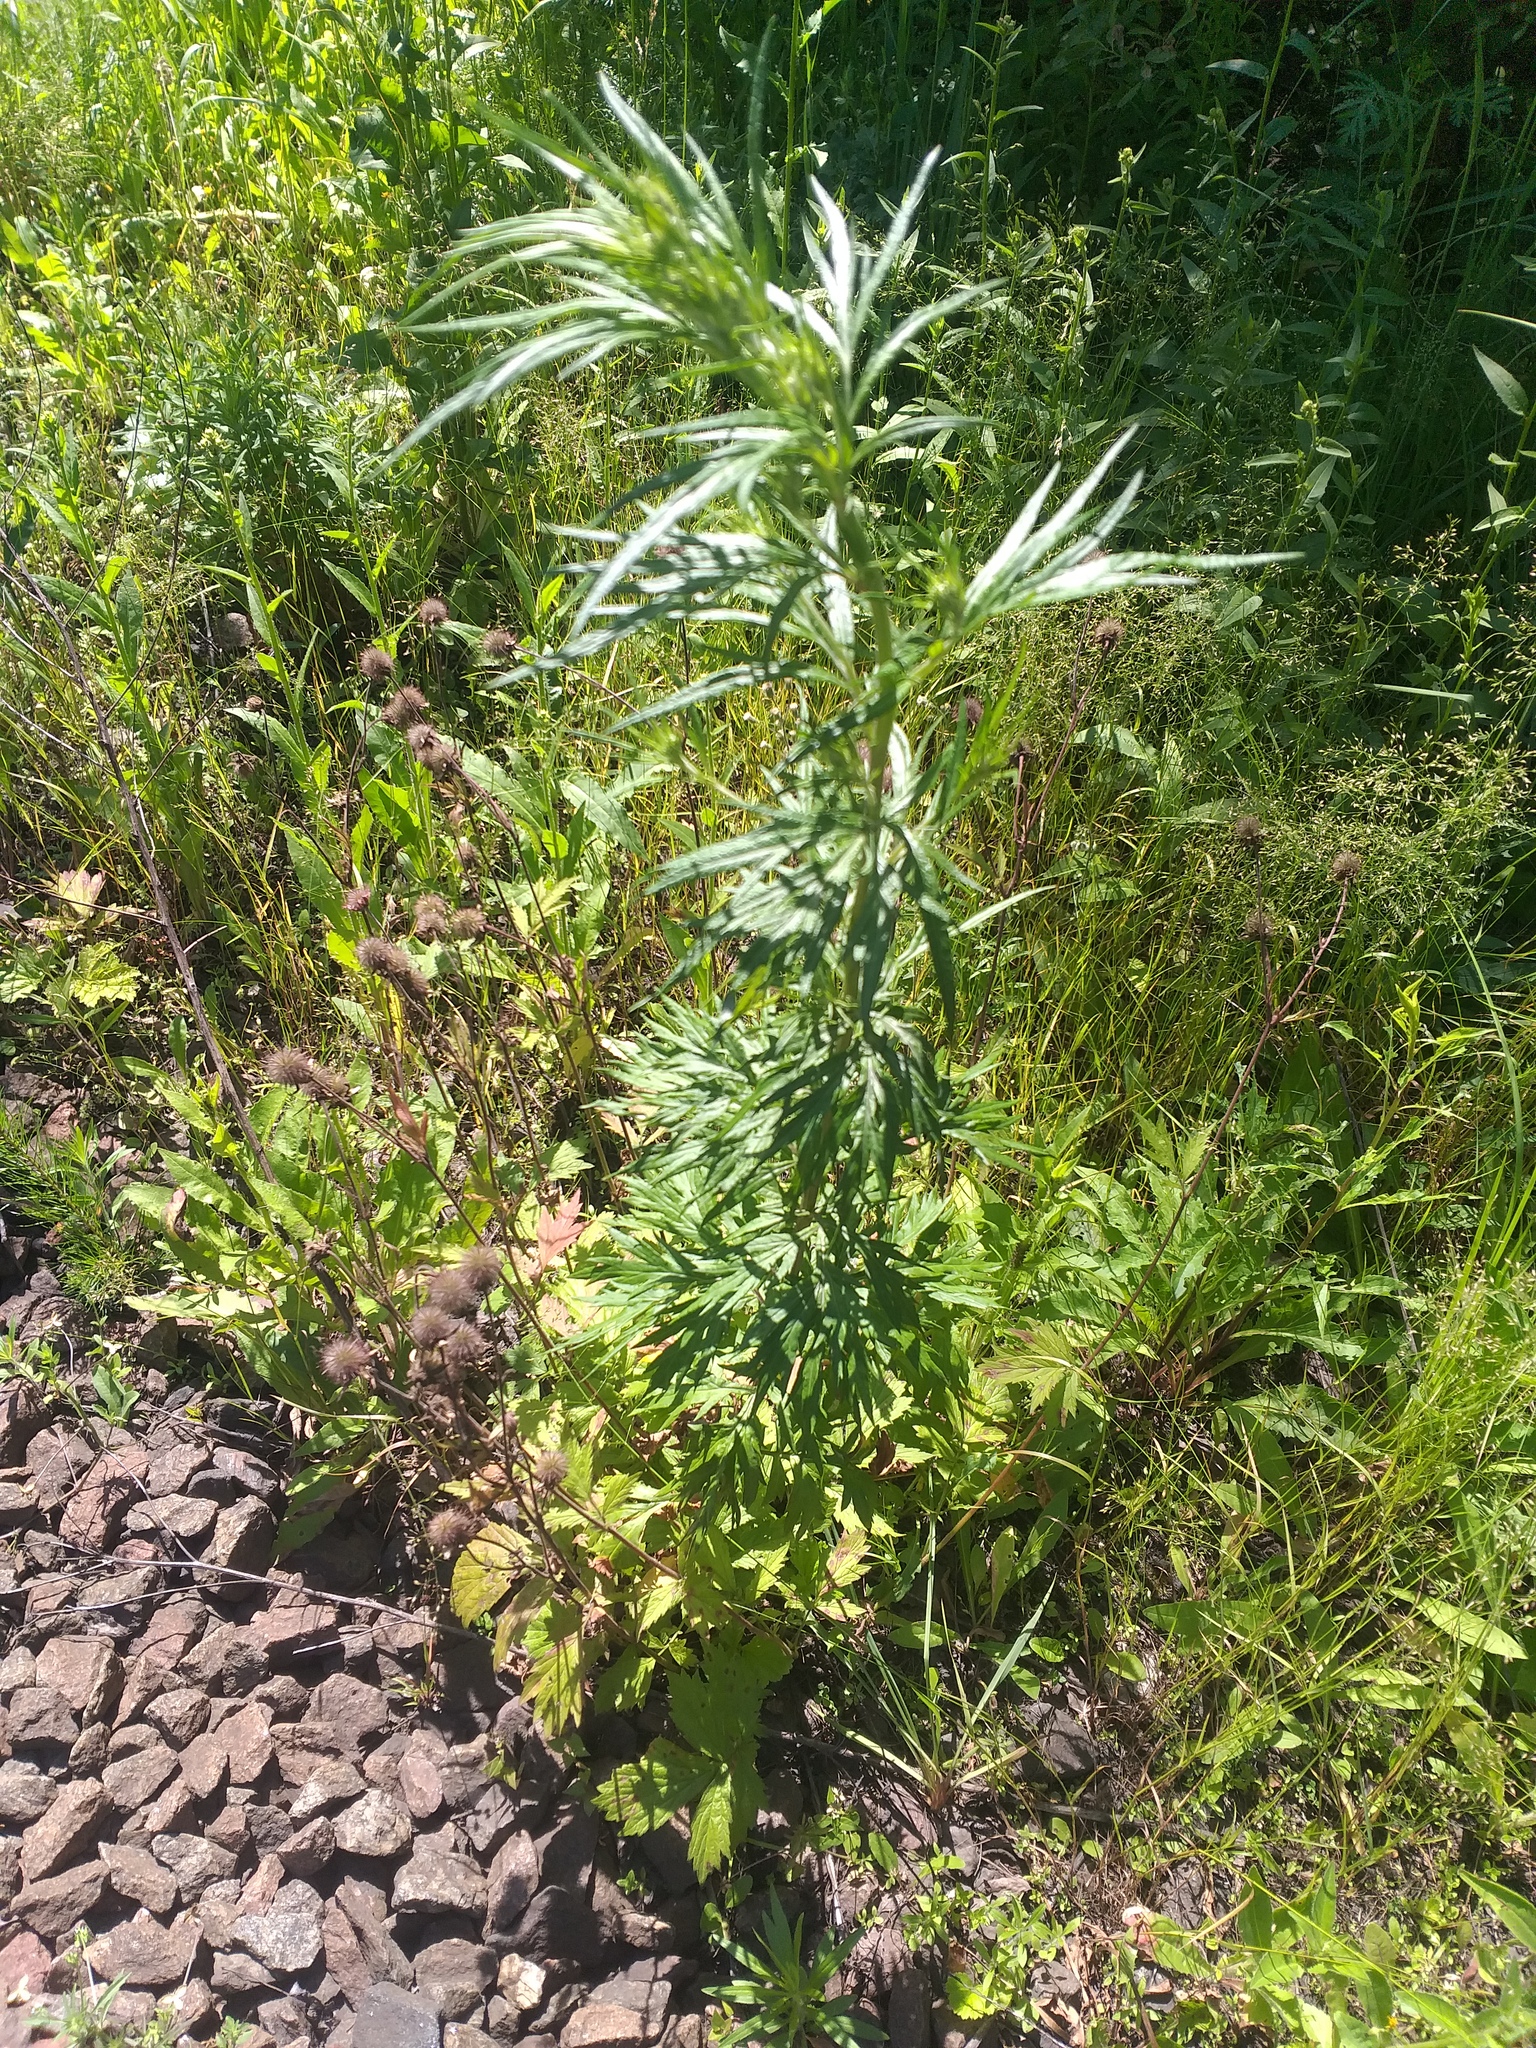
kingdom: Plantae
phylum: Tracheophyta
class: Magnoliopsida
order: Asterales
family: Asteraceae
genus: Artemisia
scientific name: Artemisia vulgaris
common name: Mugwort
